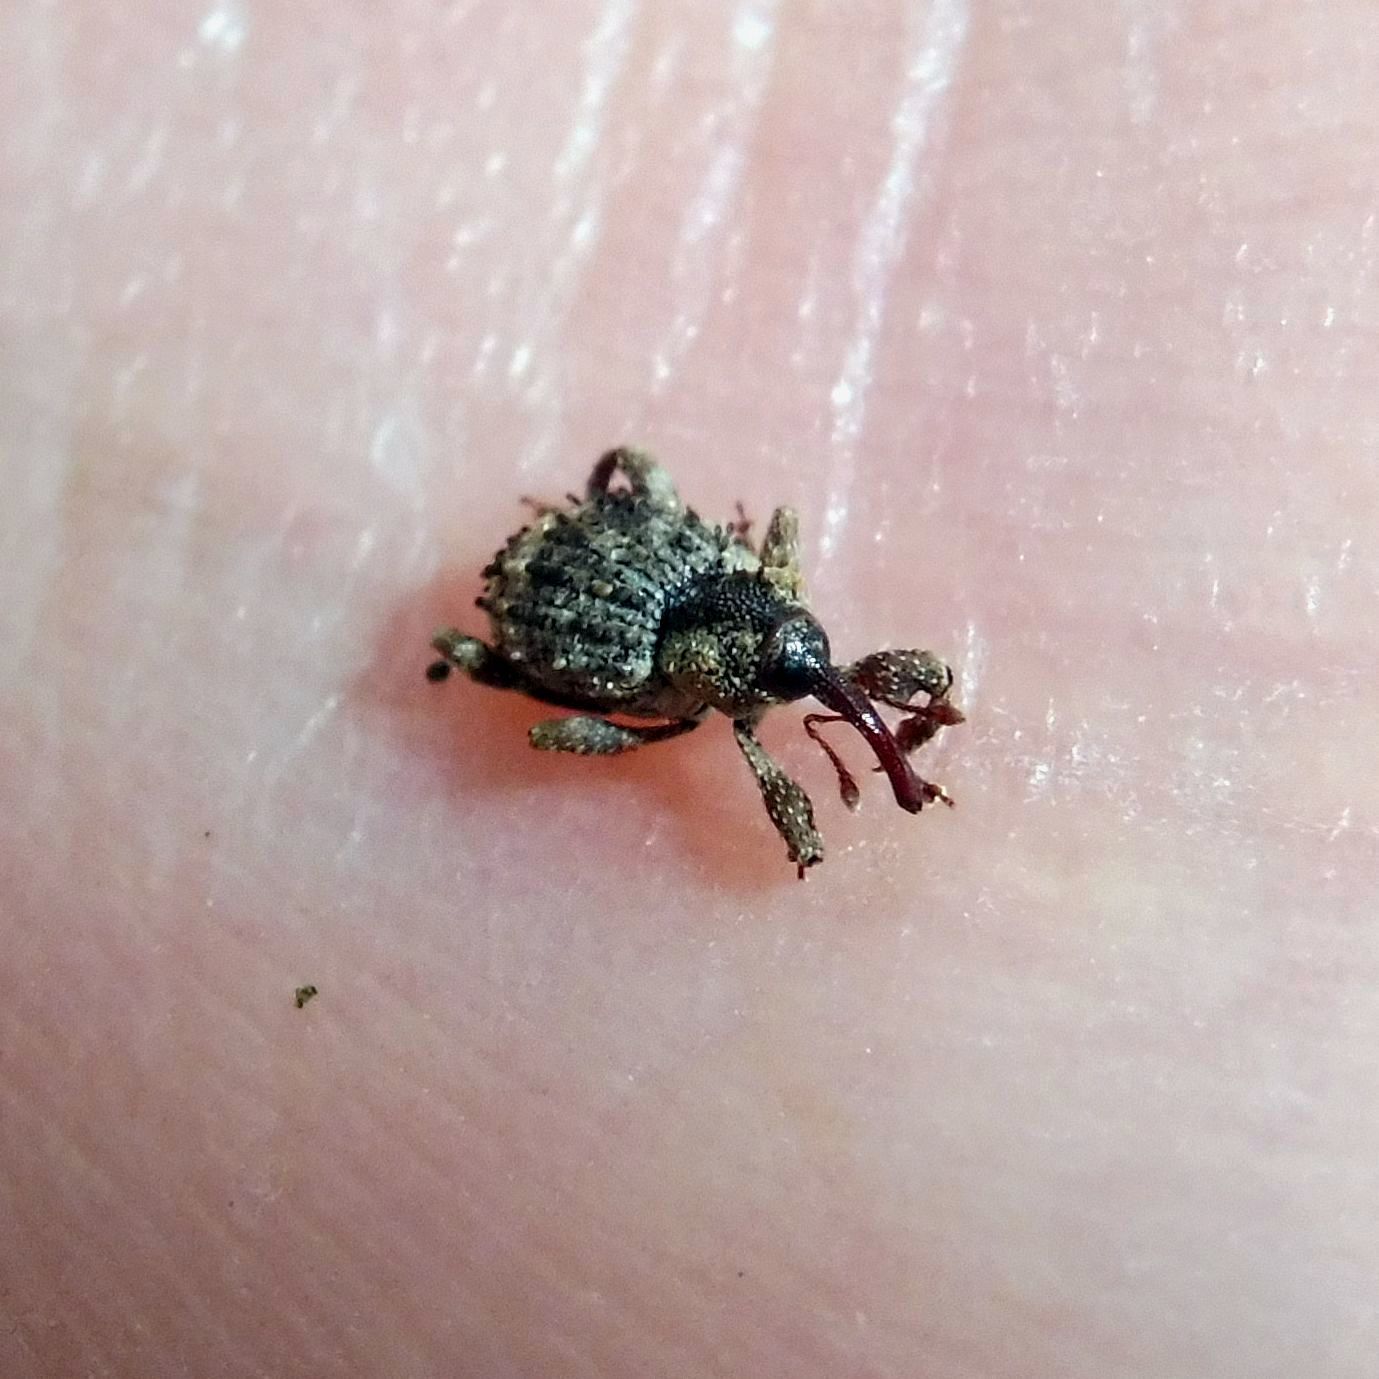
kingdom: Animalia
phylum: Arthropoda
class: Insecta
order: Coleoptera
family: Curculionidae
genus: Trachodes
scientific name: Trachodes hispidus
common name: Weevil
